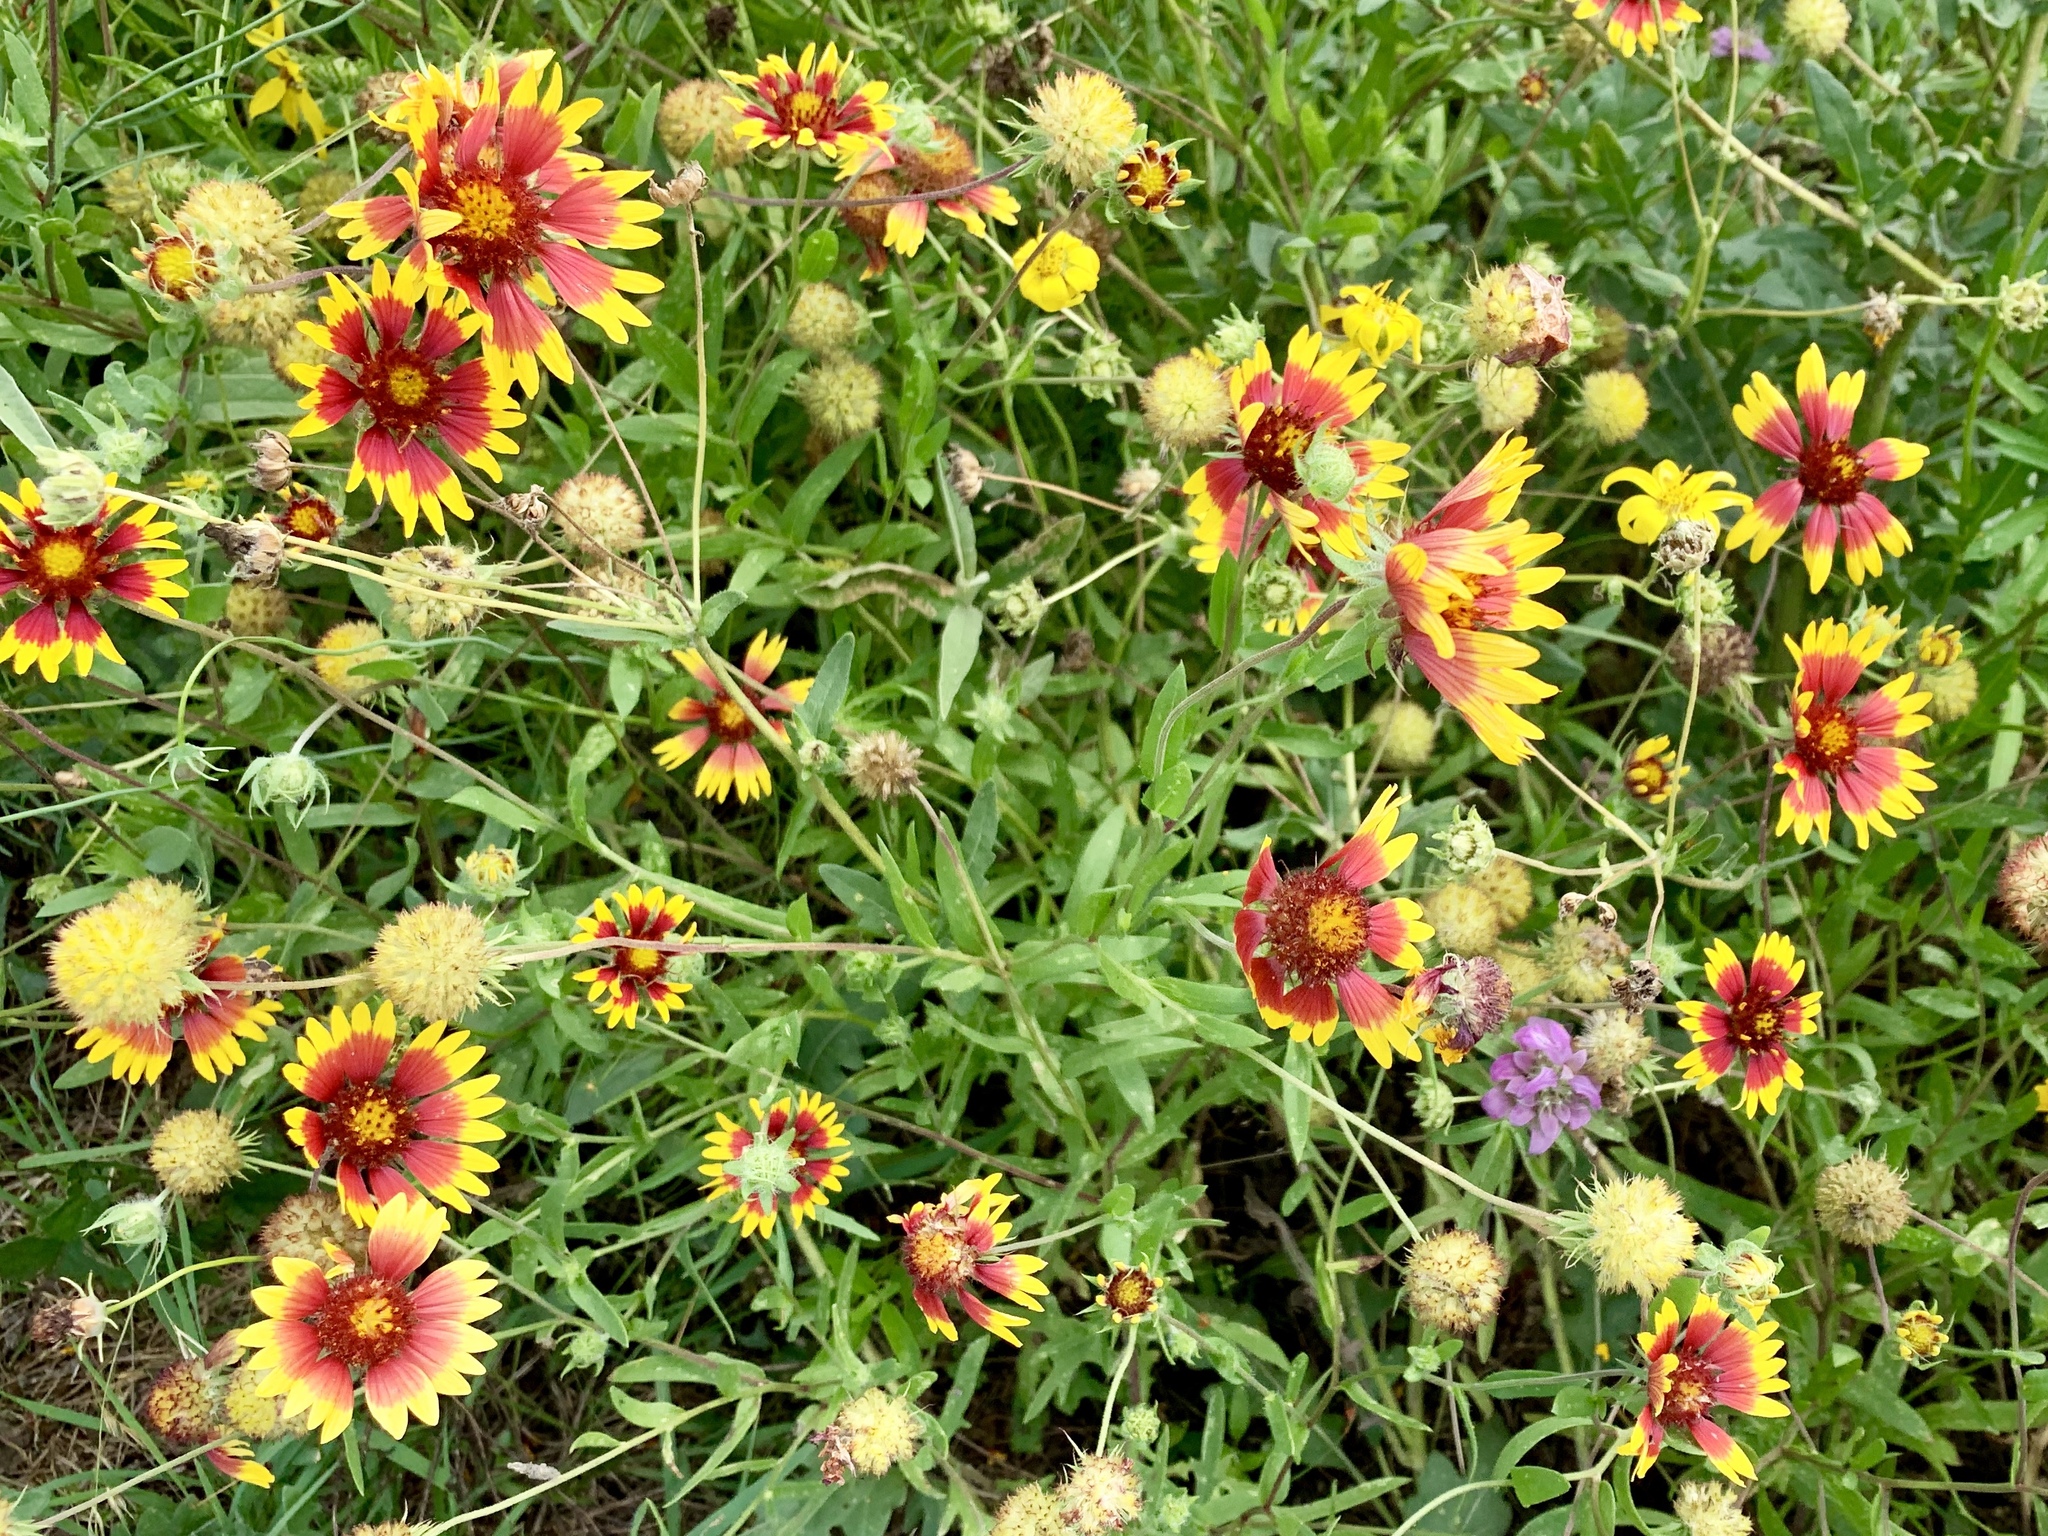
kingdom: Plantae
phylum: Tracheophyta
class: Magnoliopsida
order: Asterales
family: Asteraceae
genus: Gaillardia
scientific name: Gaillardia pulchella
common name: Firewheel
